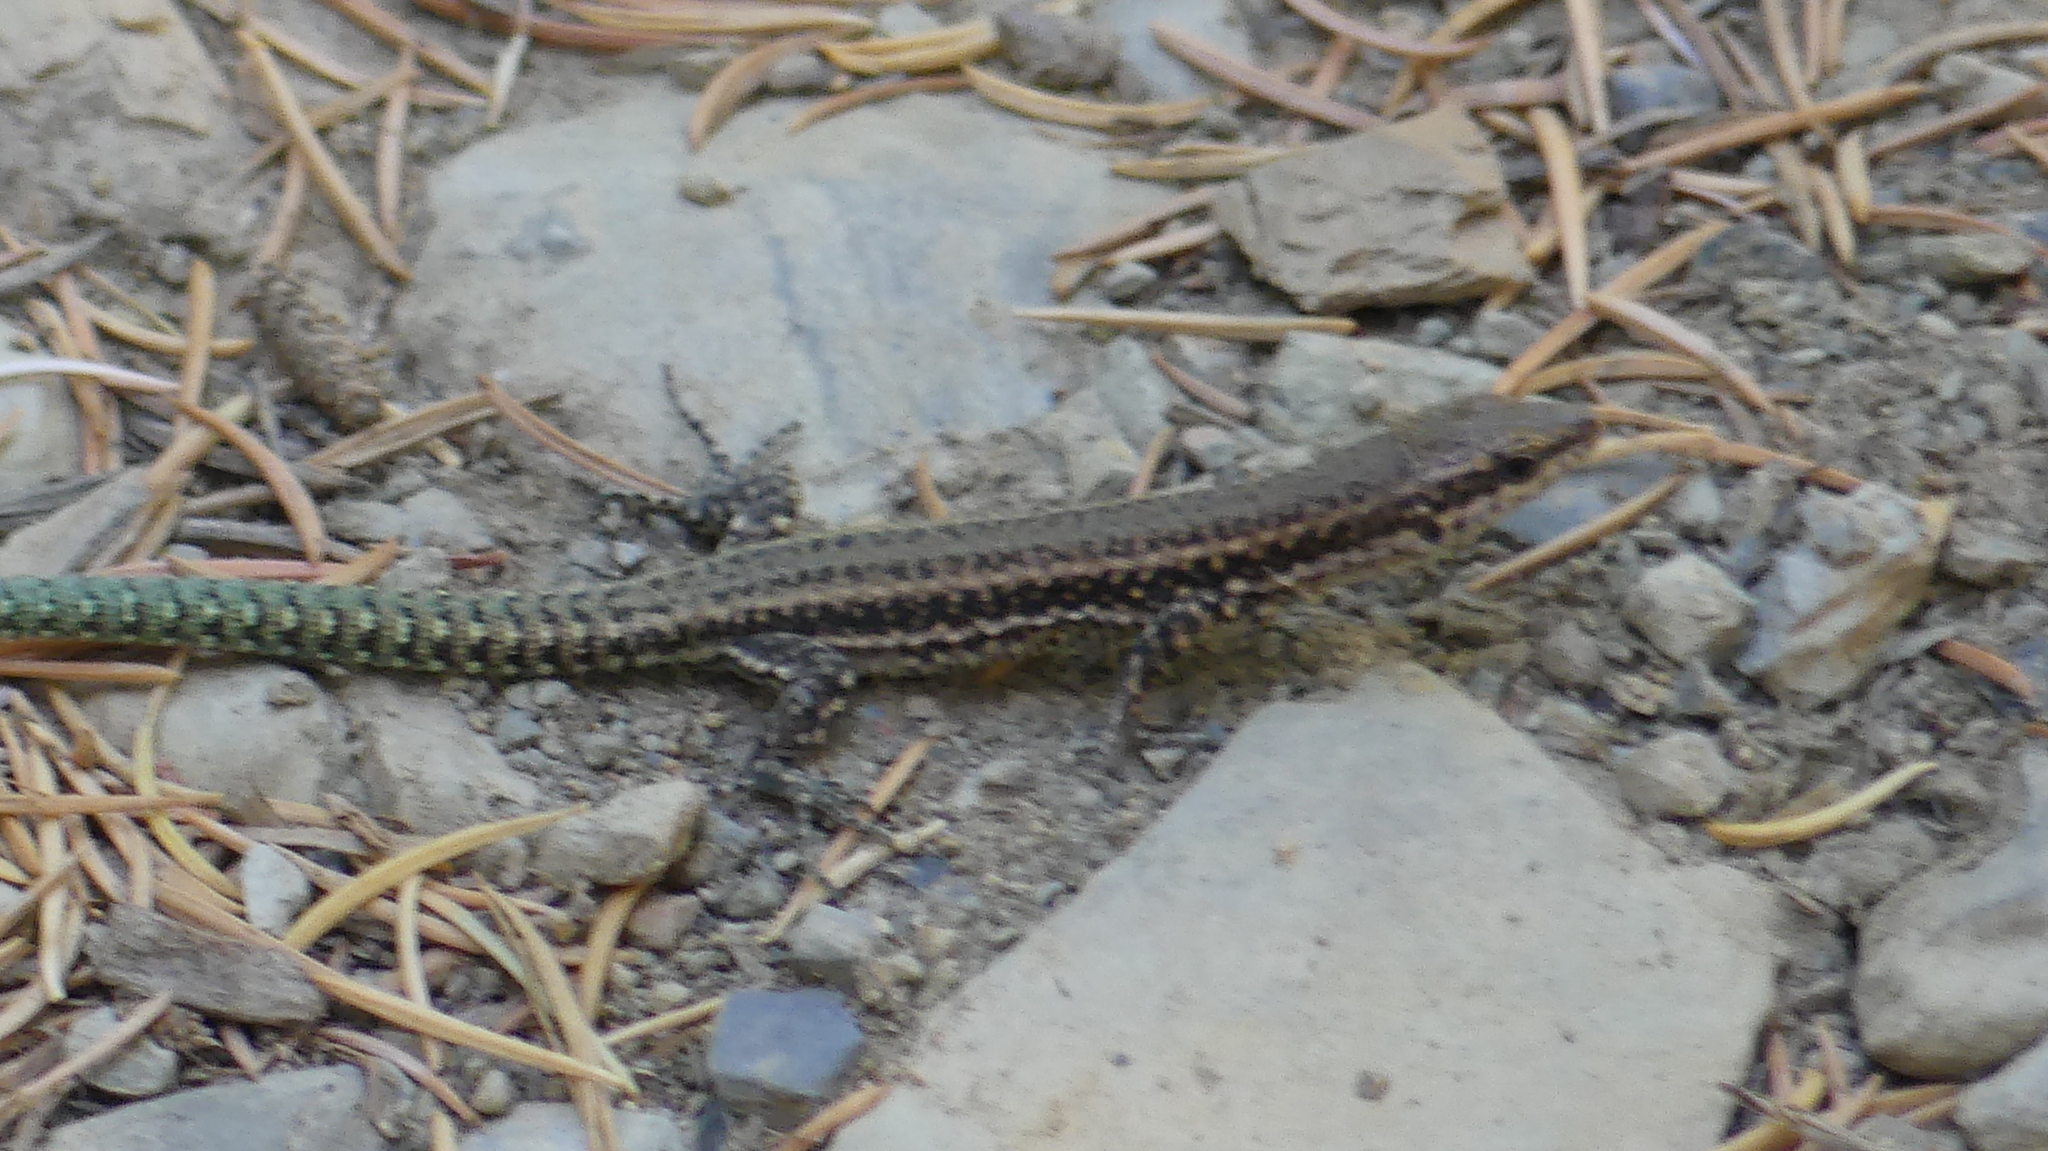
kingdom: Animalia
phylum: Chordata
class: Squamata
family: Lacertidae
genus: Podarcis
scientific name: Podarcis vaucheri
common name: Vaucher's wall lizard
